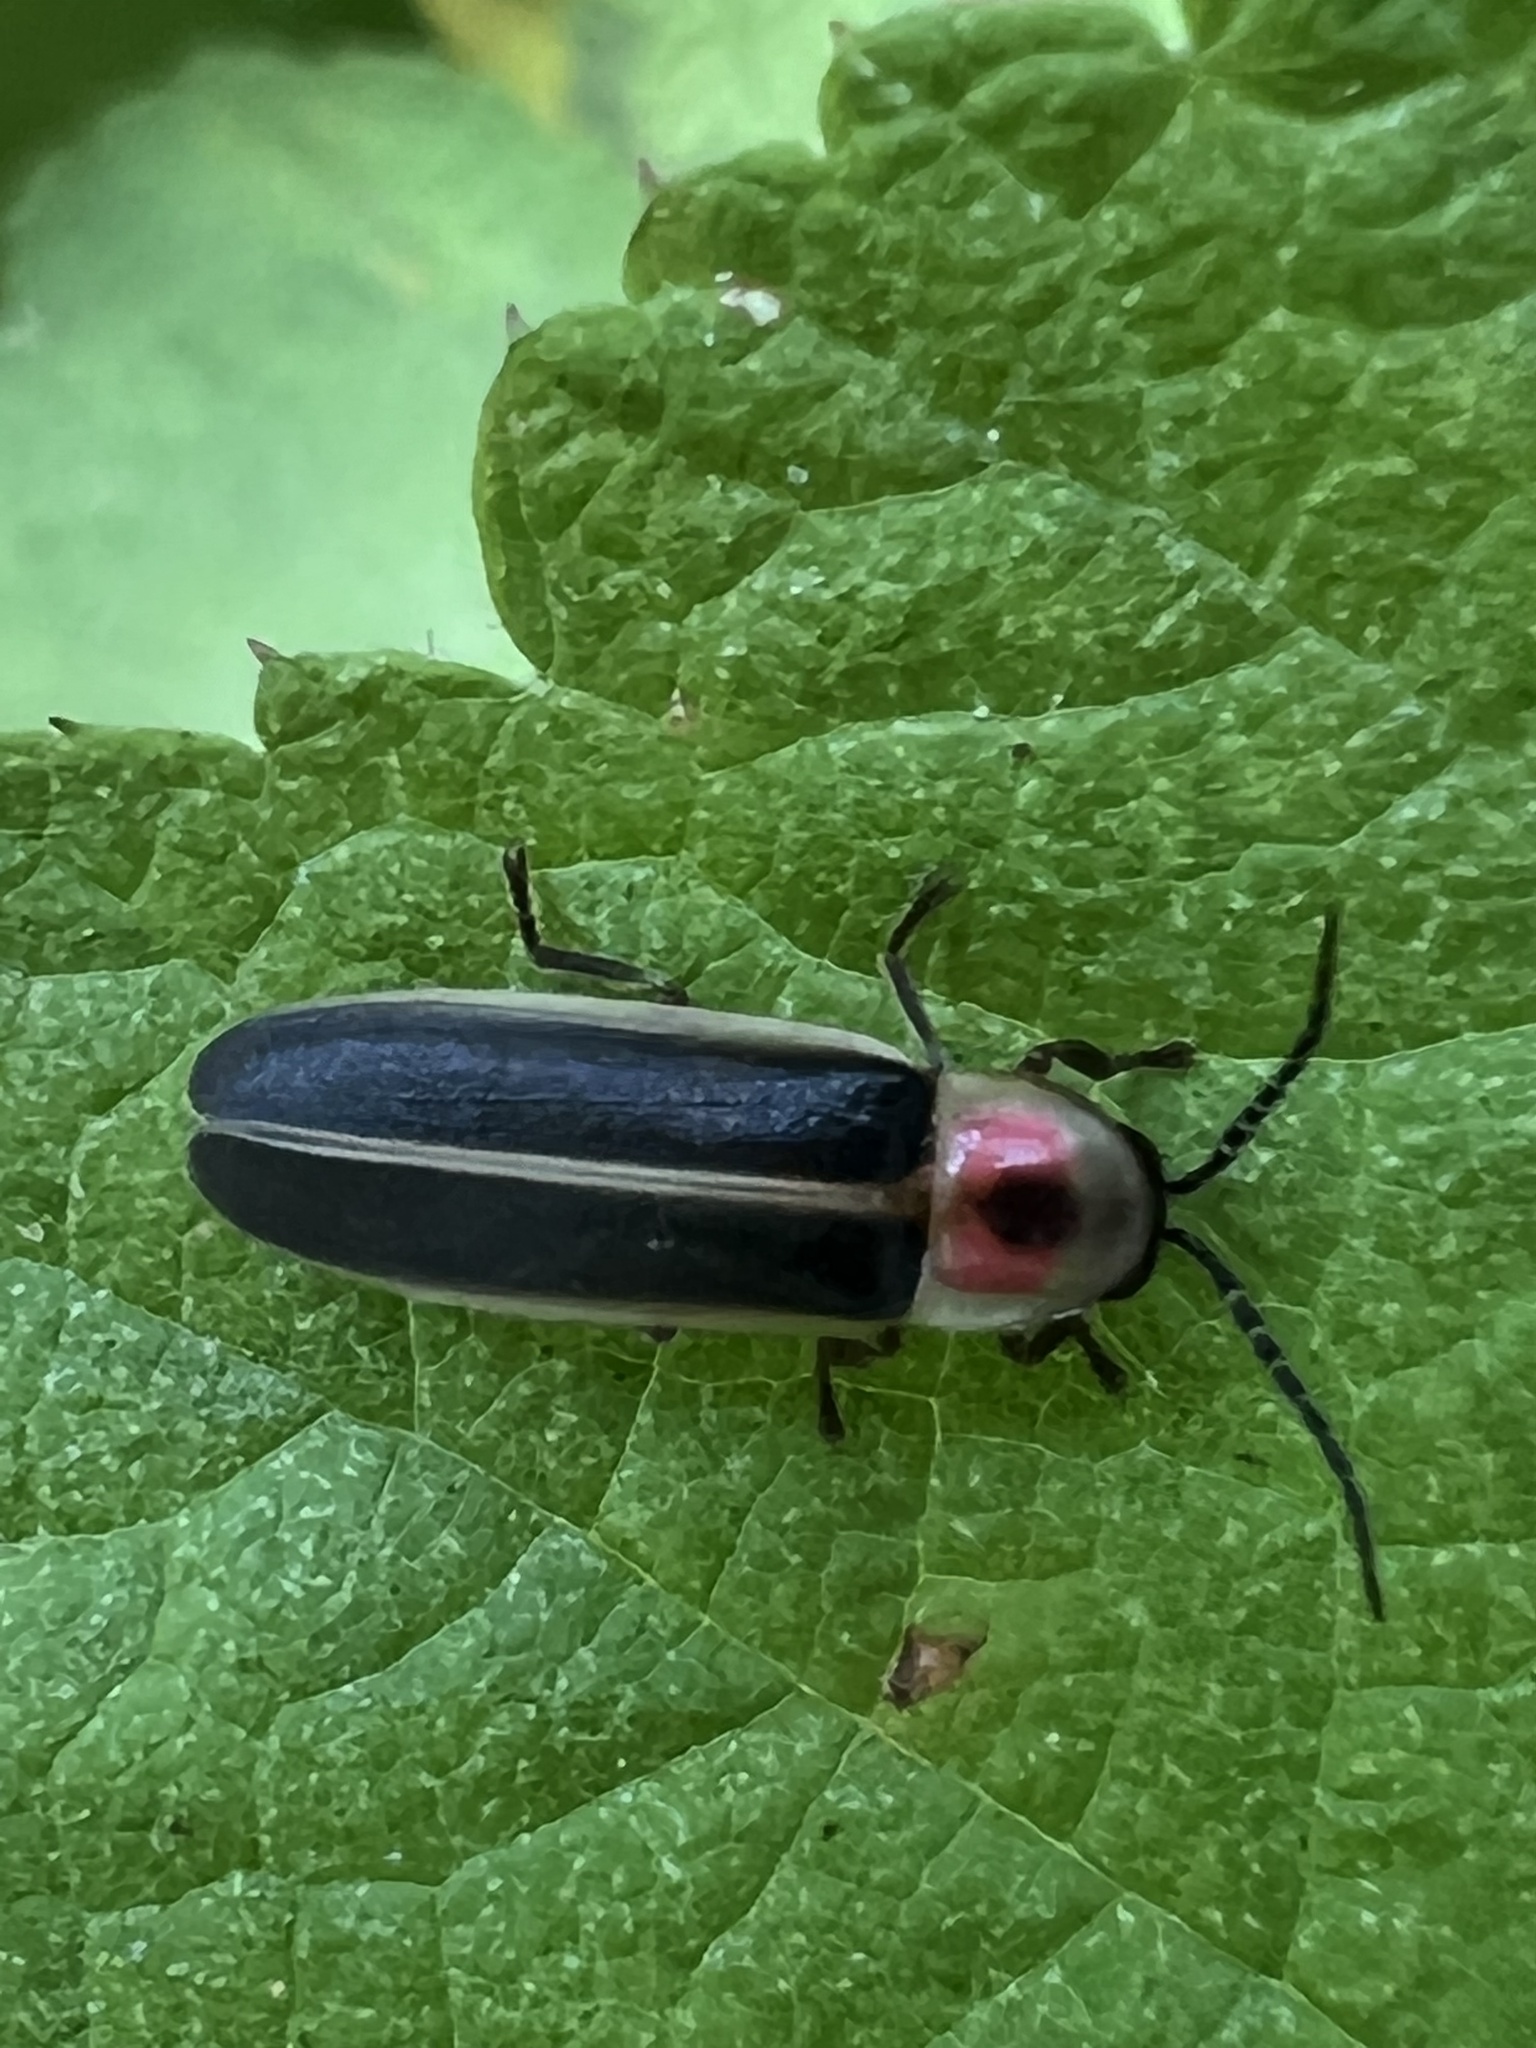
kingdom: Animalia
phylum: Arthropoda
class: Insecta
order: Coleoptera
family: Lampyridae
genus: Photinus
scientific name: Photinus pyralis
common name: Big dipper firefly
